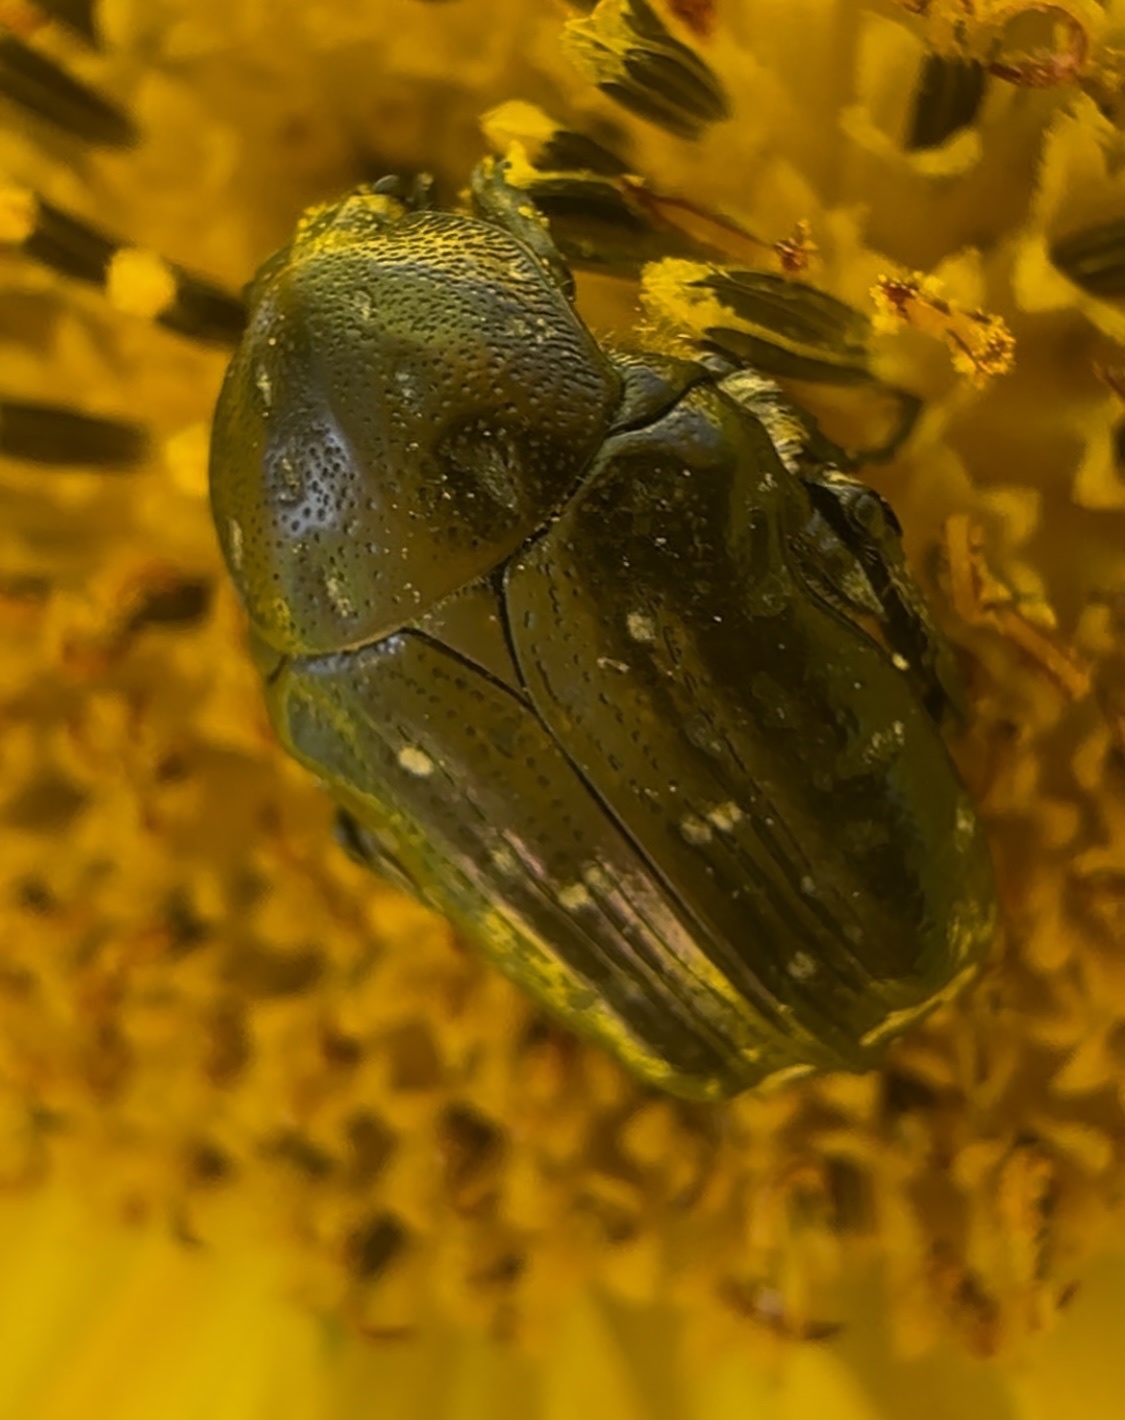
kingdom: Animalia
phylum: Arthropoda
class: Insecta
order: Coleoptera
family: Scarabaeidae
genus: Oxythyrea
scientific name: Oxythyrea funesta
